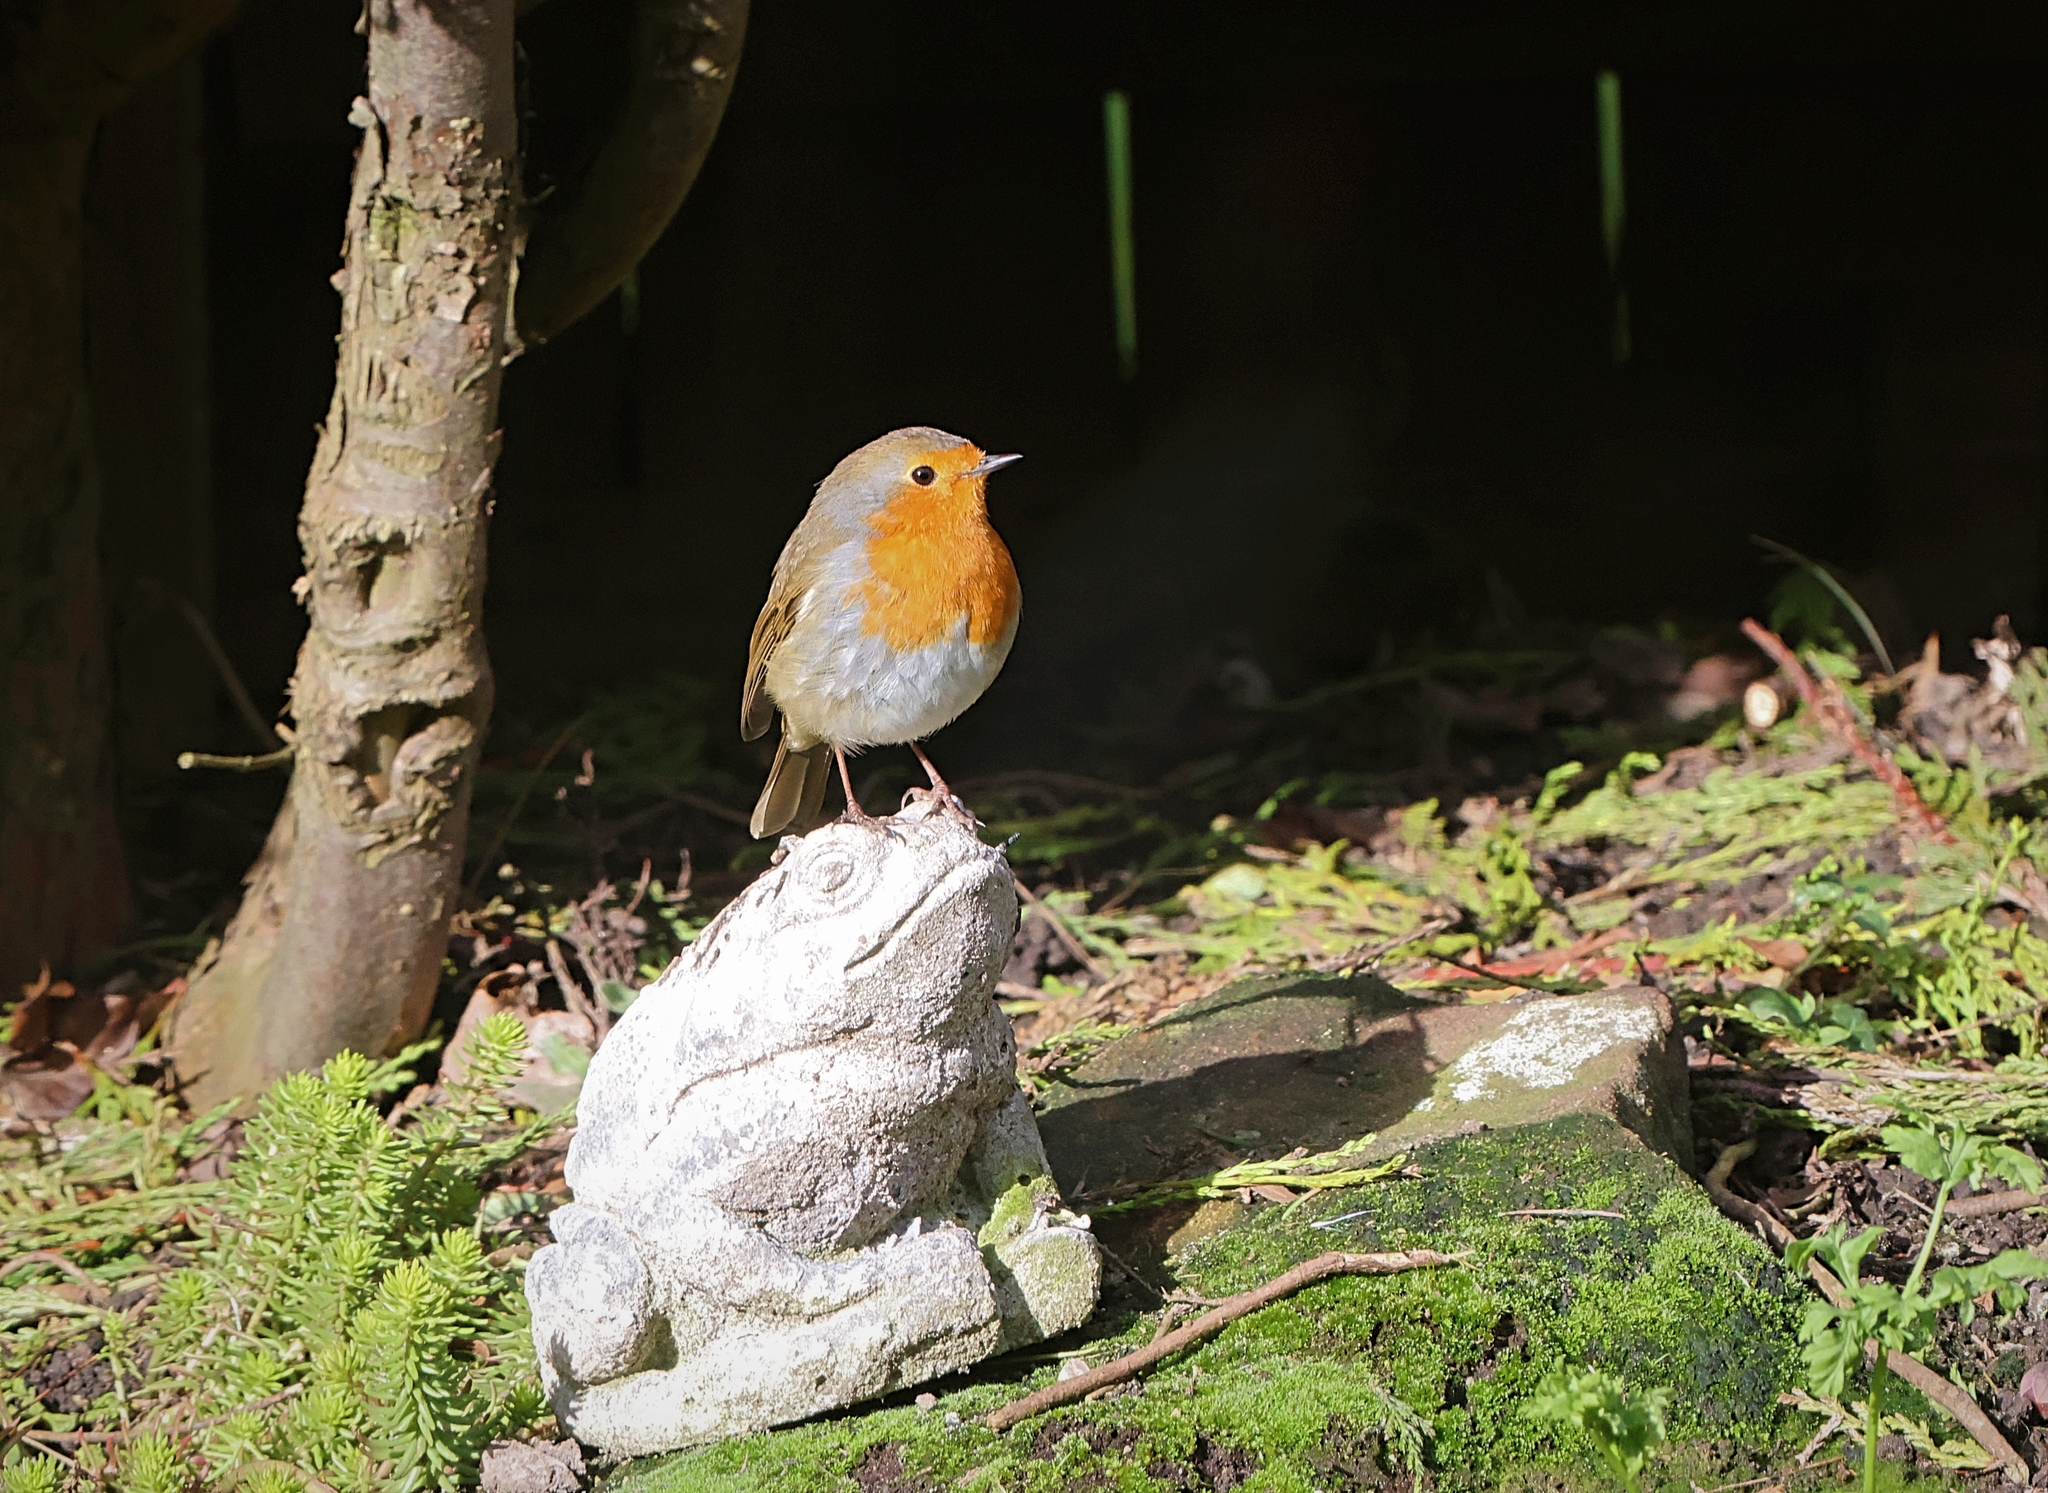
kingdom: Animalia
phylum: Chordata
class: Aves
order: Passeriformes
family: Muscicapidae
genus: Erithacus
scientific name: Erithacus rubecula
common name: European robin
